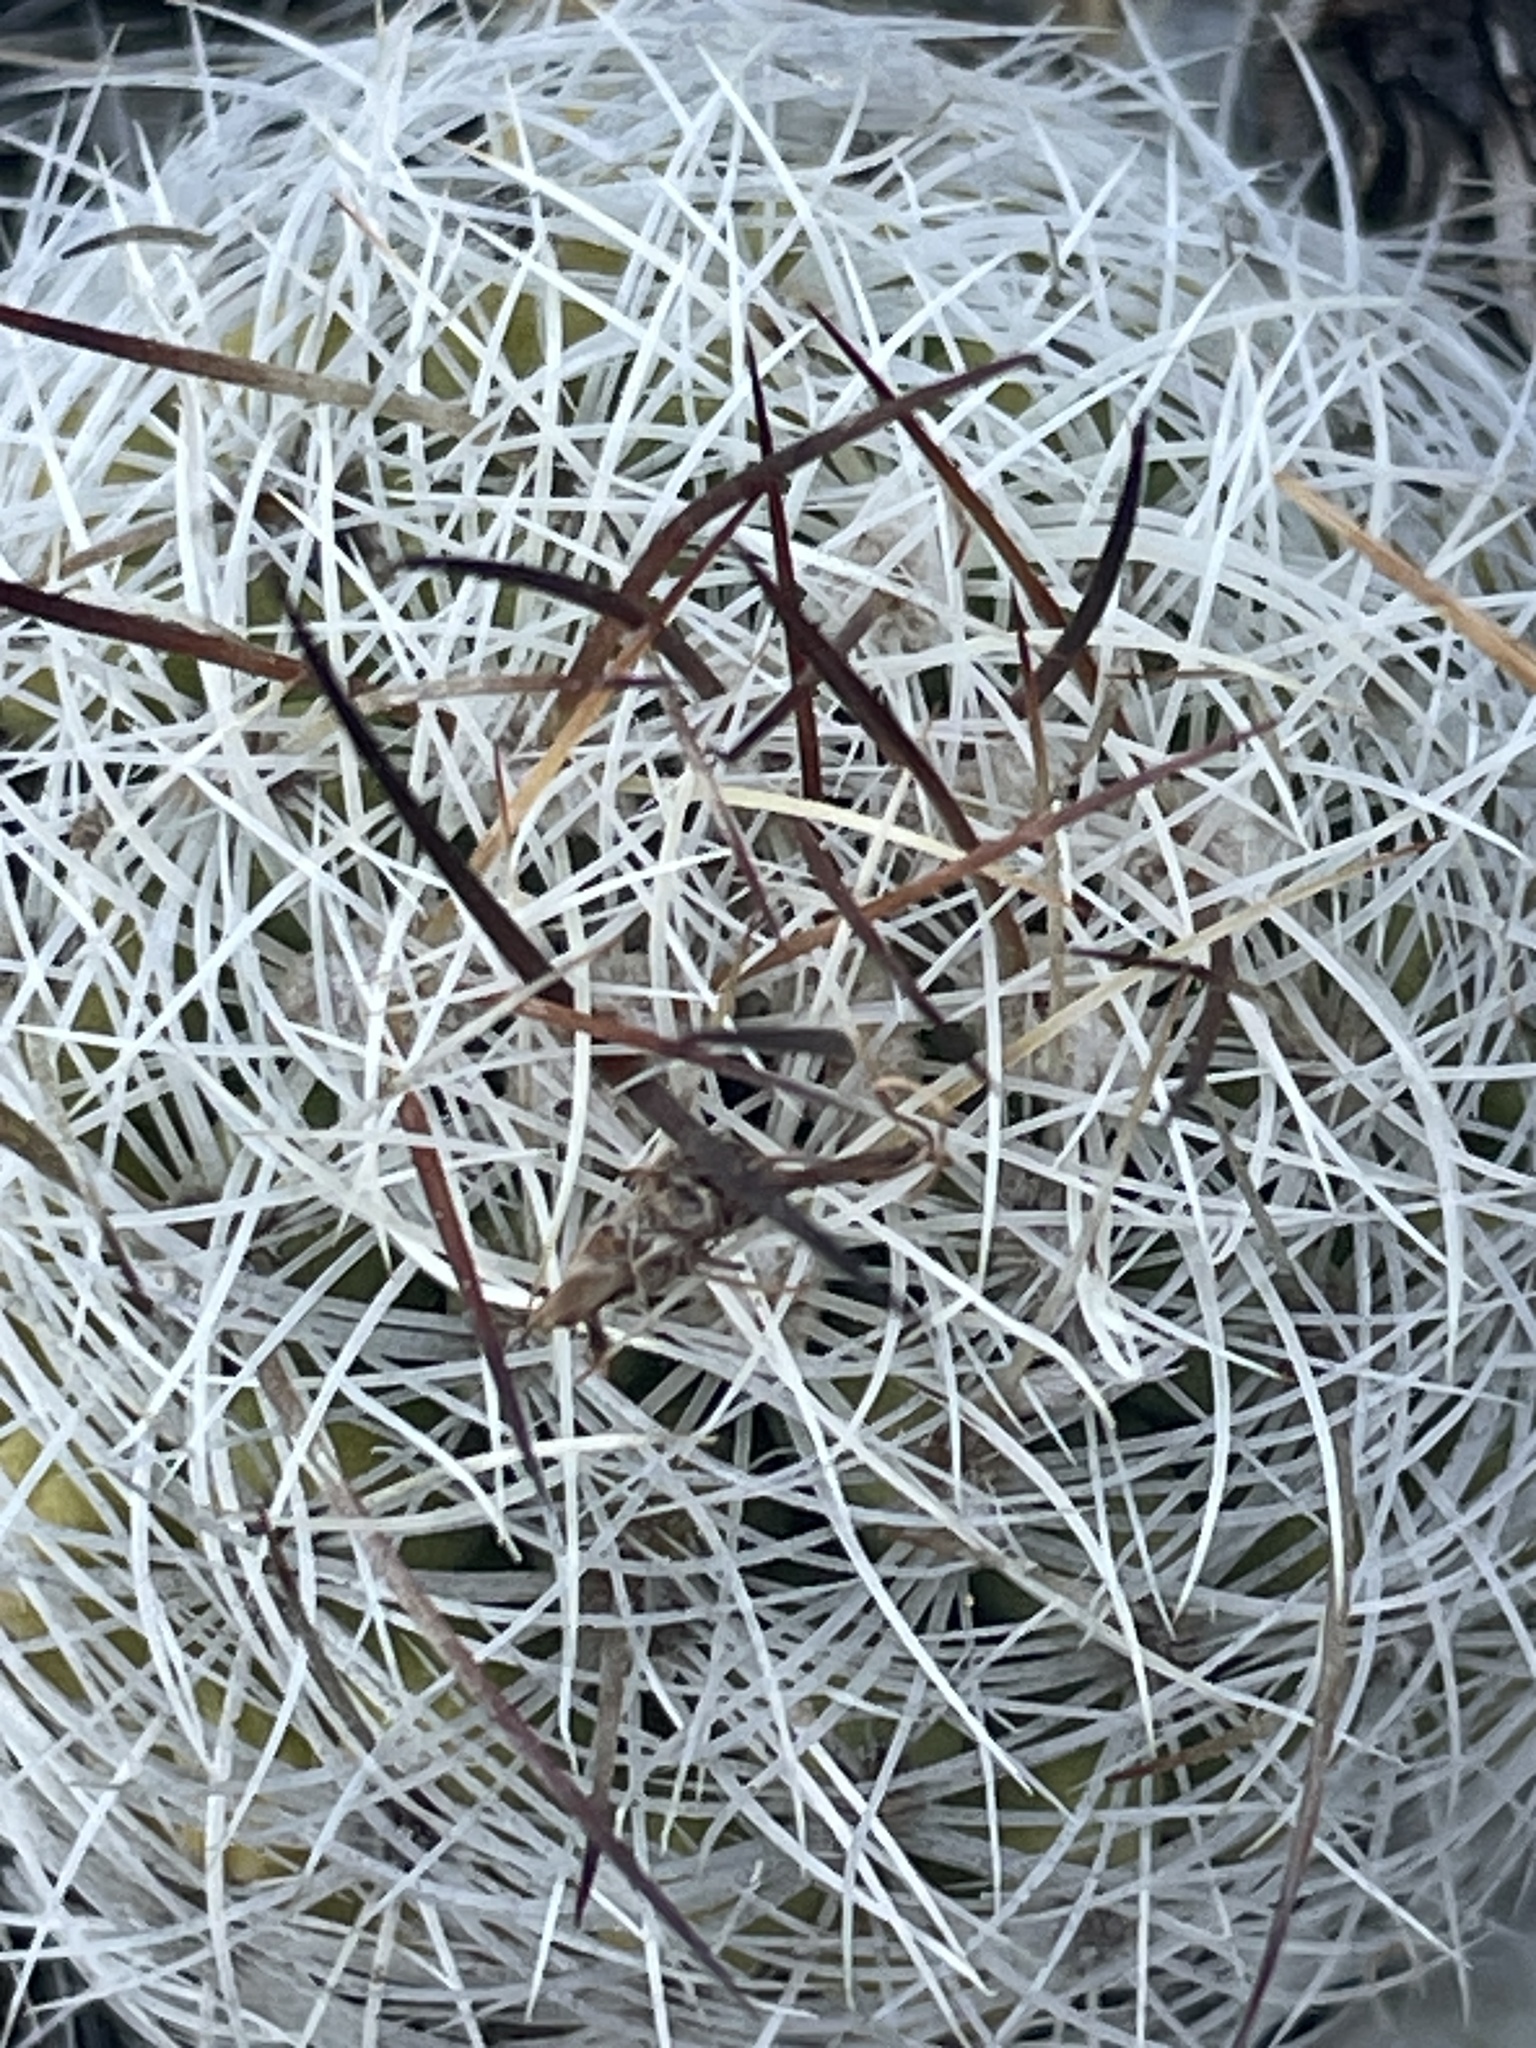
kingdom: Plantae
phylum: Tracheophyta
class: Magnoliopsida
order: Caryophyllales
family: Cactaceae
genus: Pediocactus
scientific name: Pediocactus simpsonii
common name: Simpson's hedgehog cactus
